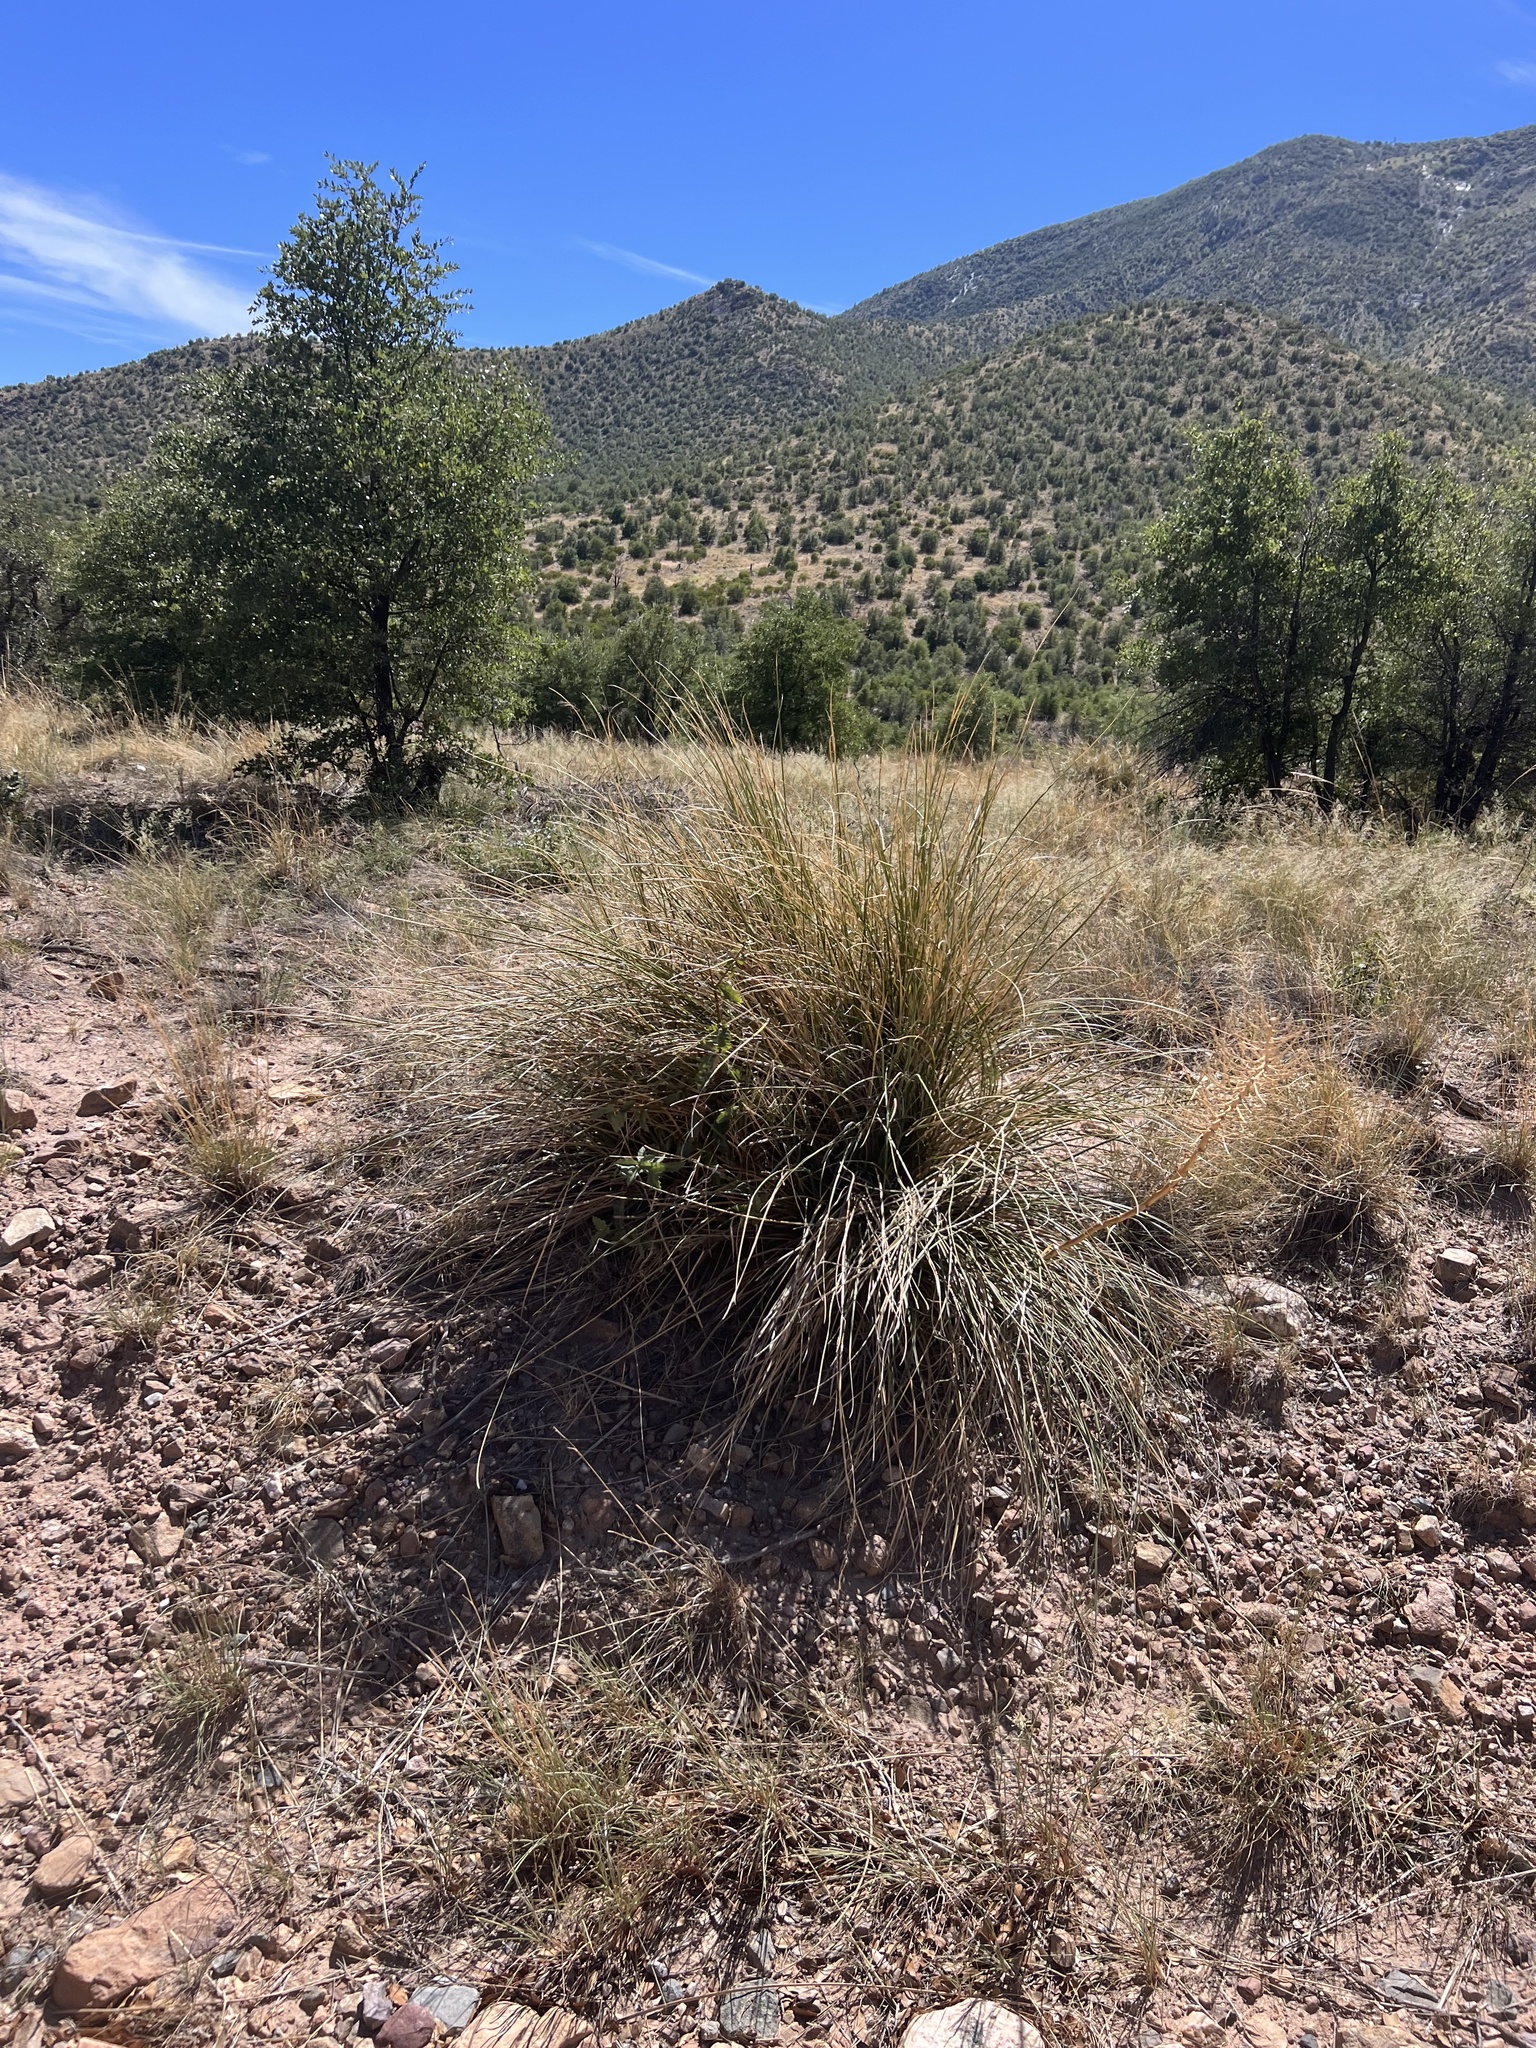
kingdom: Plantae
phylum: Tracheophyta
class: Liliopsida
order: Asparagales
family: Asparagaceae
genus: Nolina
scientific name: Nolina microcarpa
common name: Bear-grass
